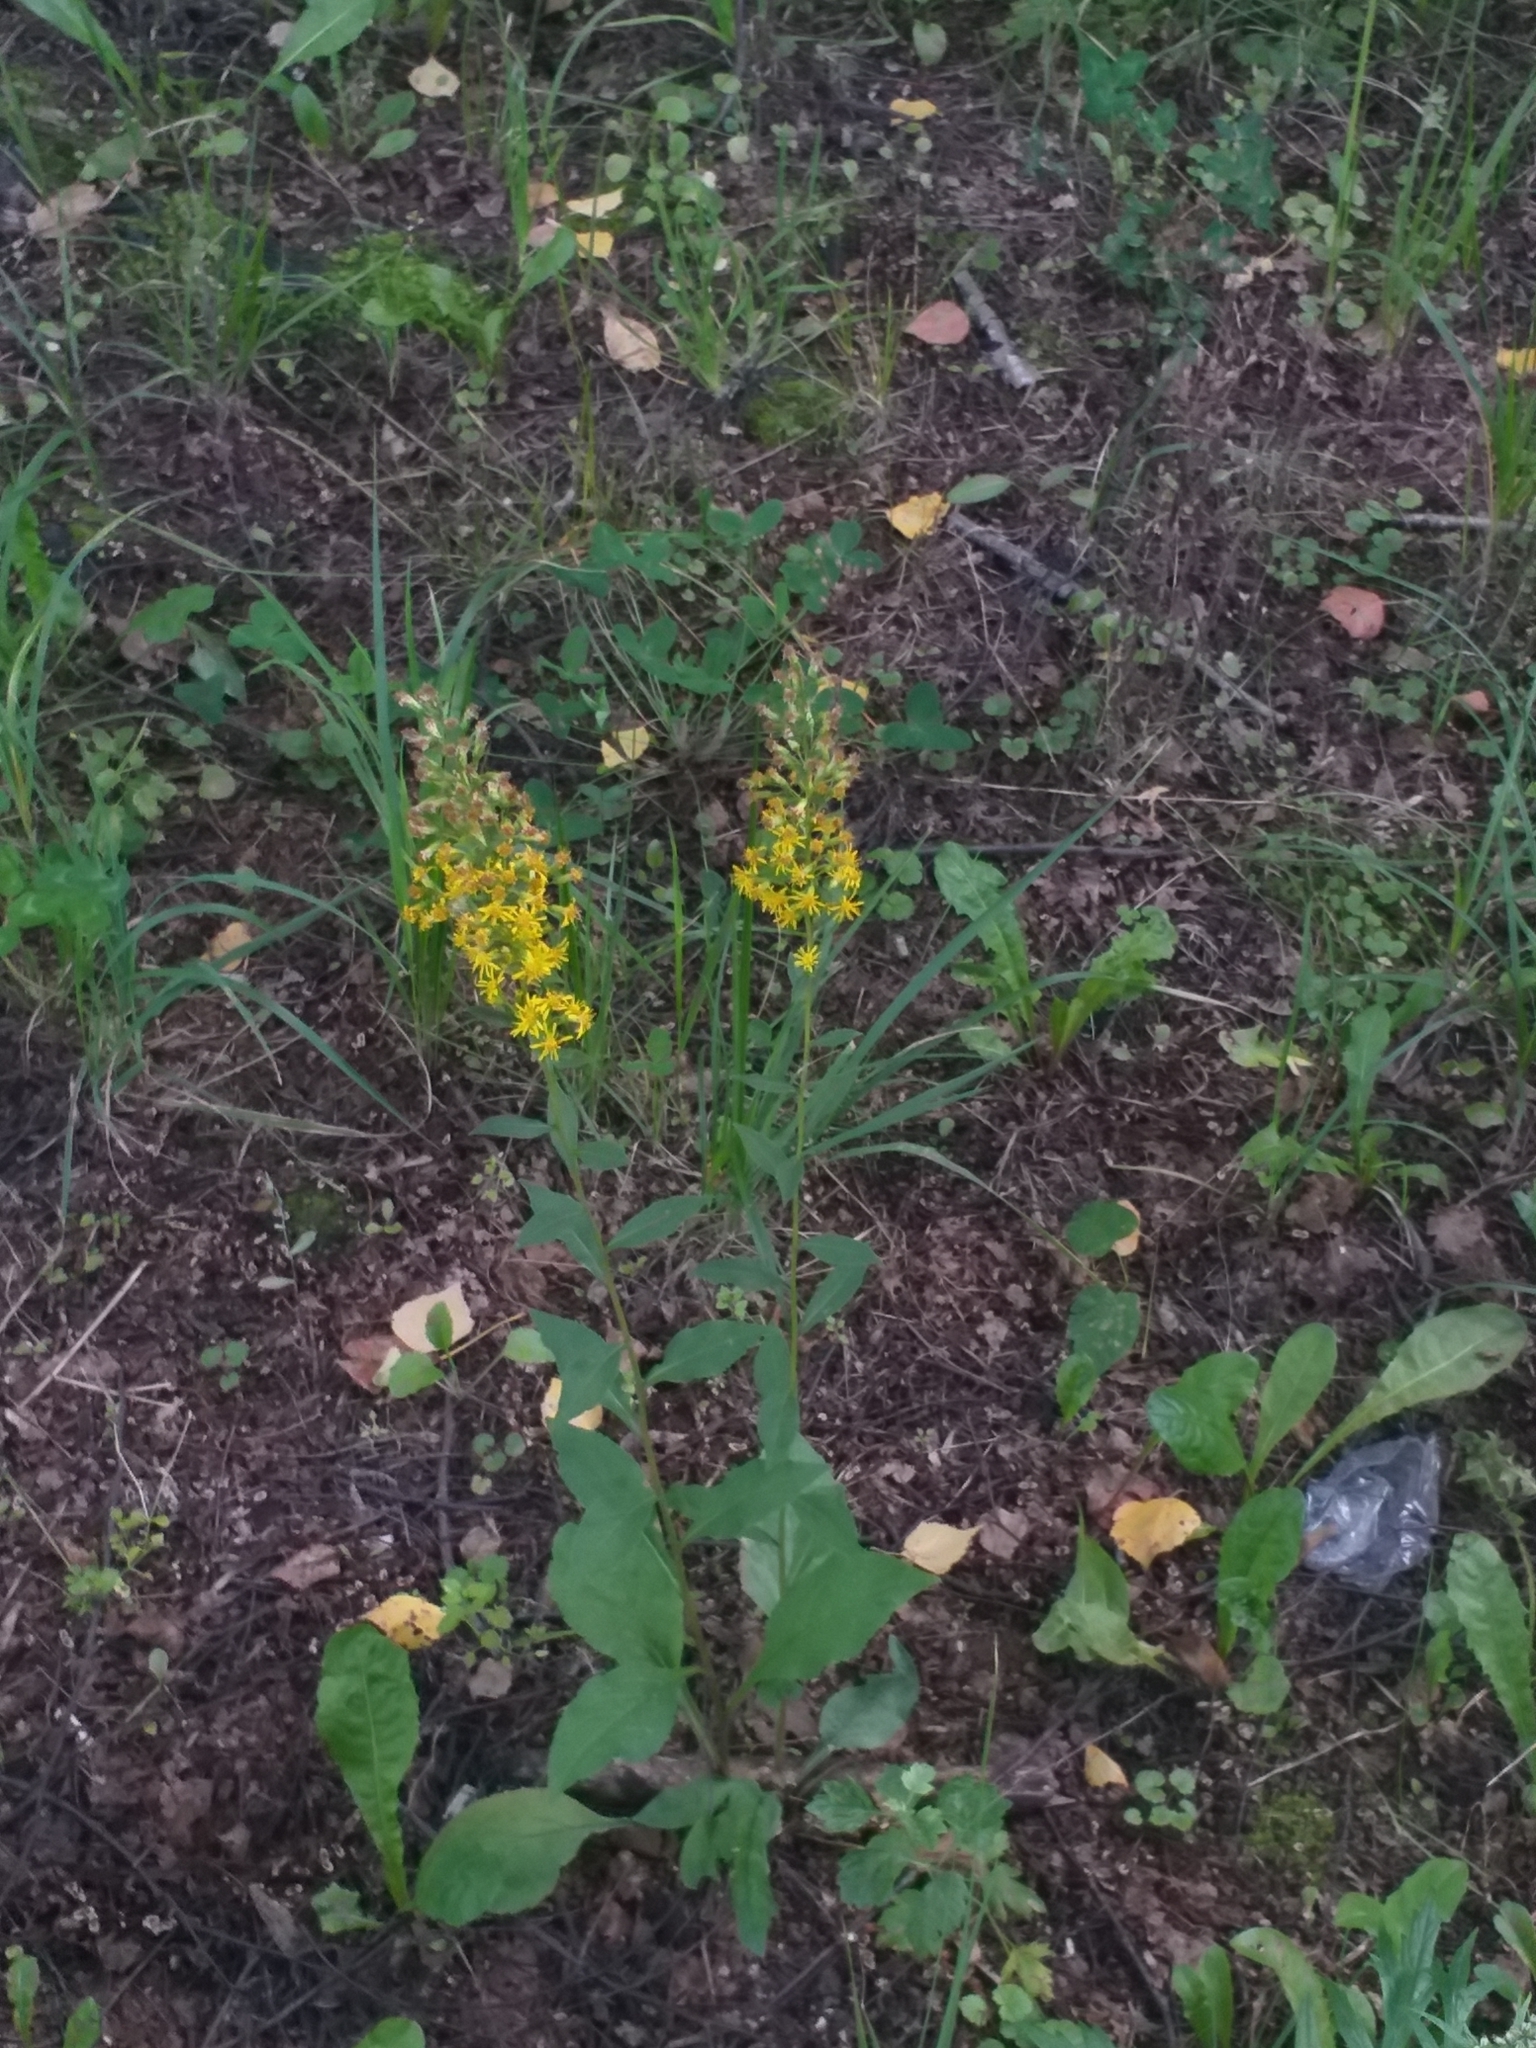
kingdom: Plantae
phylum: Tracheophyta
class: Magnoliopsida
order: Asterales
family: Asteraceae
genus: Solidago
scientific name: Solidago virgaurea
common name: Goldenrod
